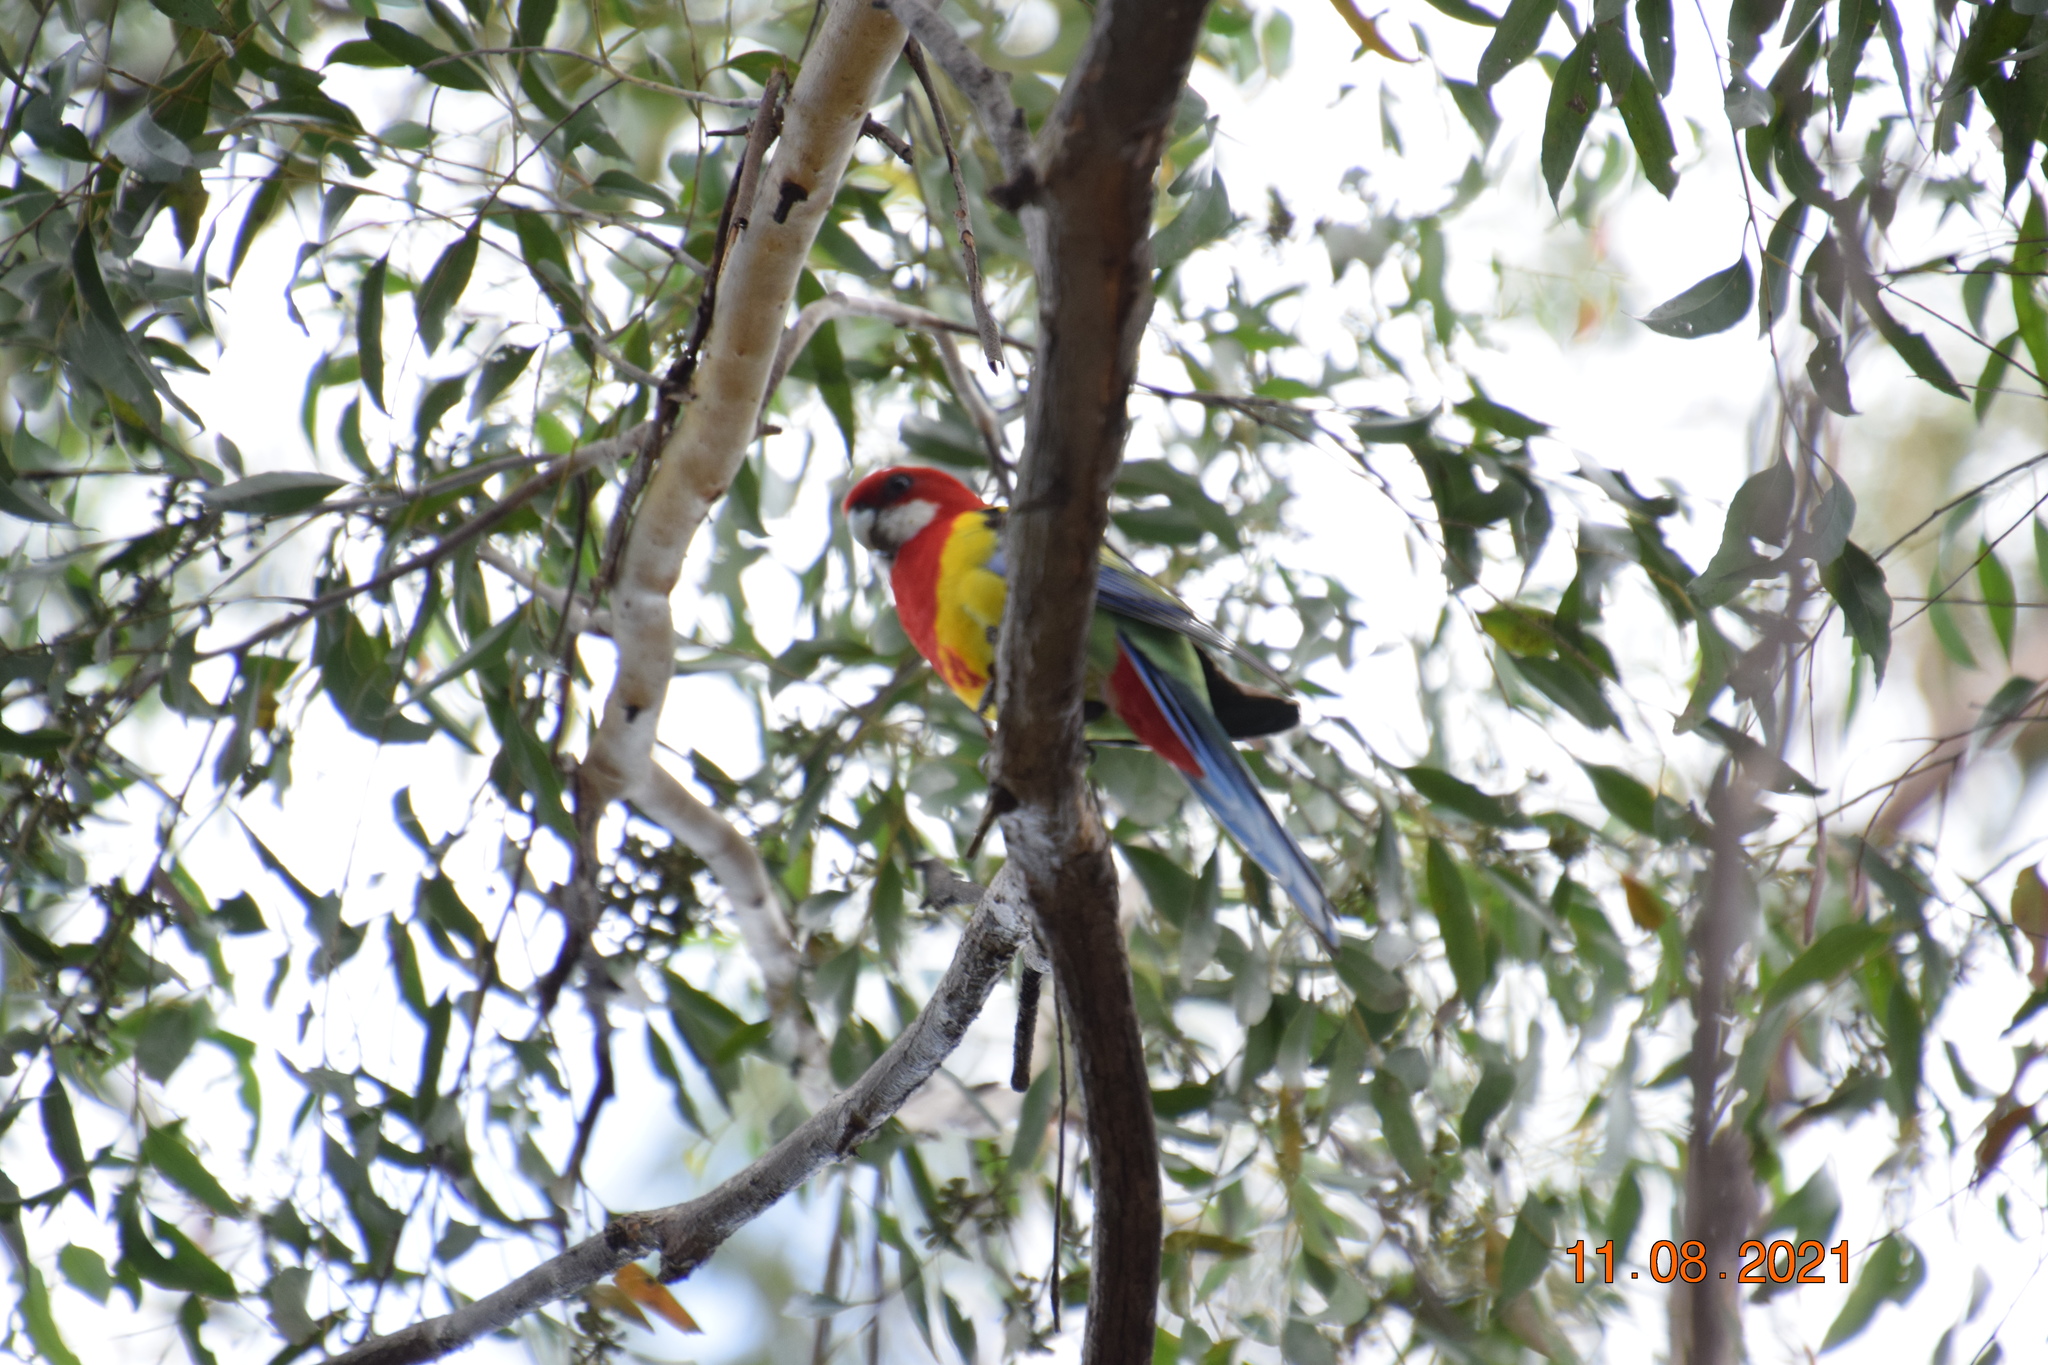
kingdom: Animalia
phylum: Chordata
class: Aves
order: Psittaciformes
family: Psittacidae
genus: Platycercus
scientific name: Platycercus eximius
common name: Eastern rosella
